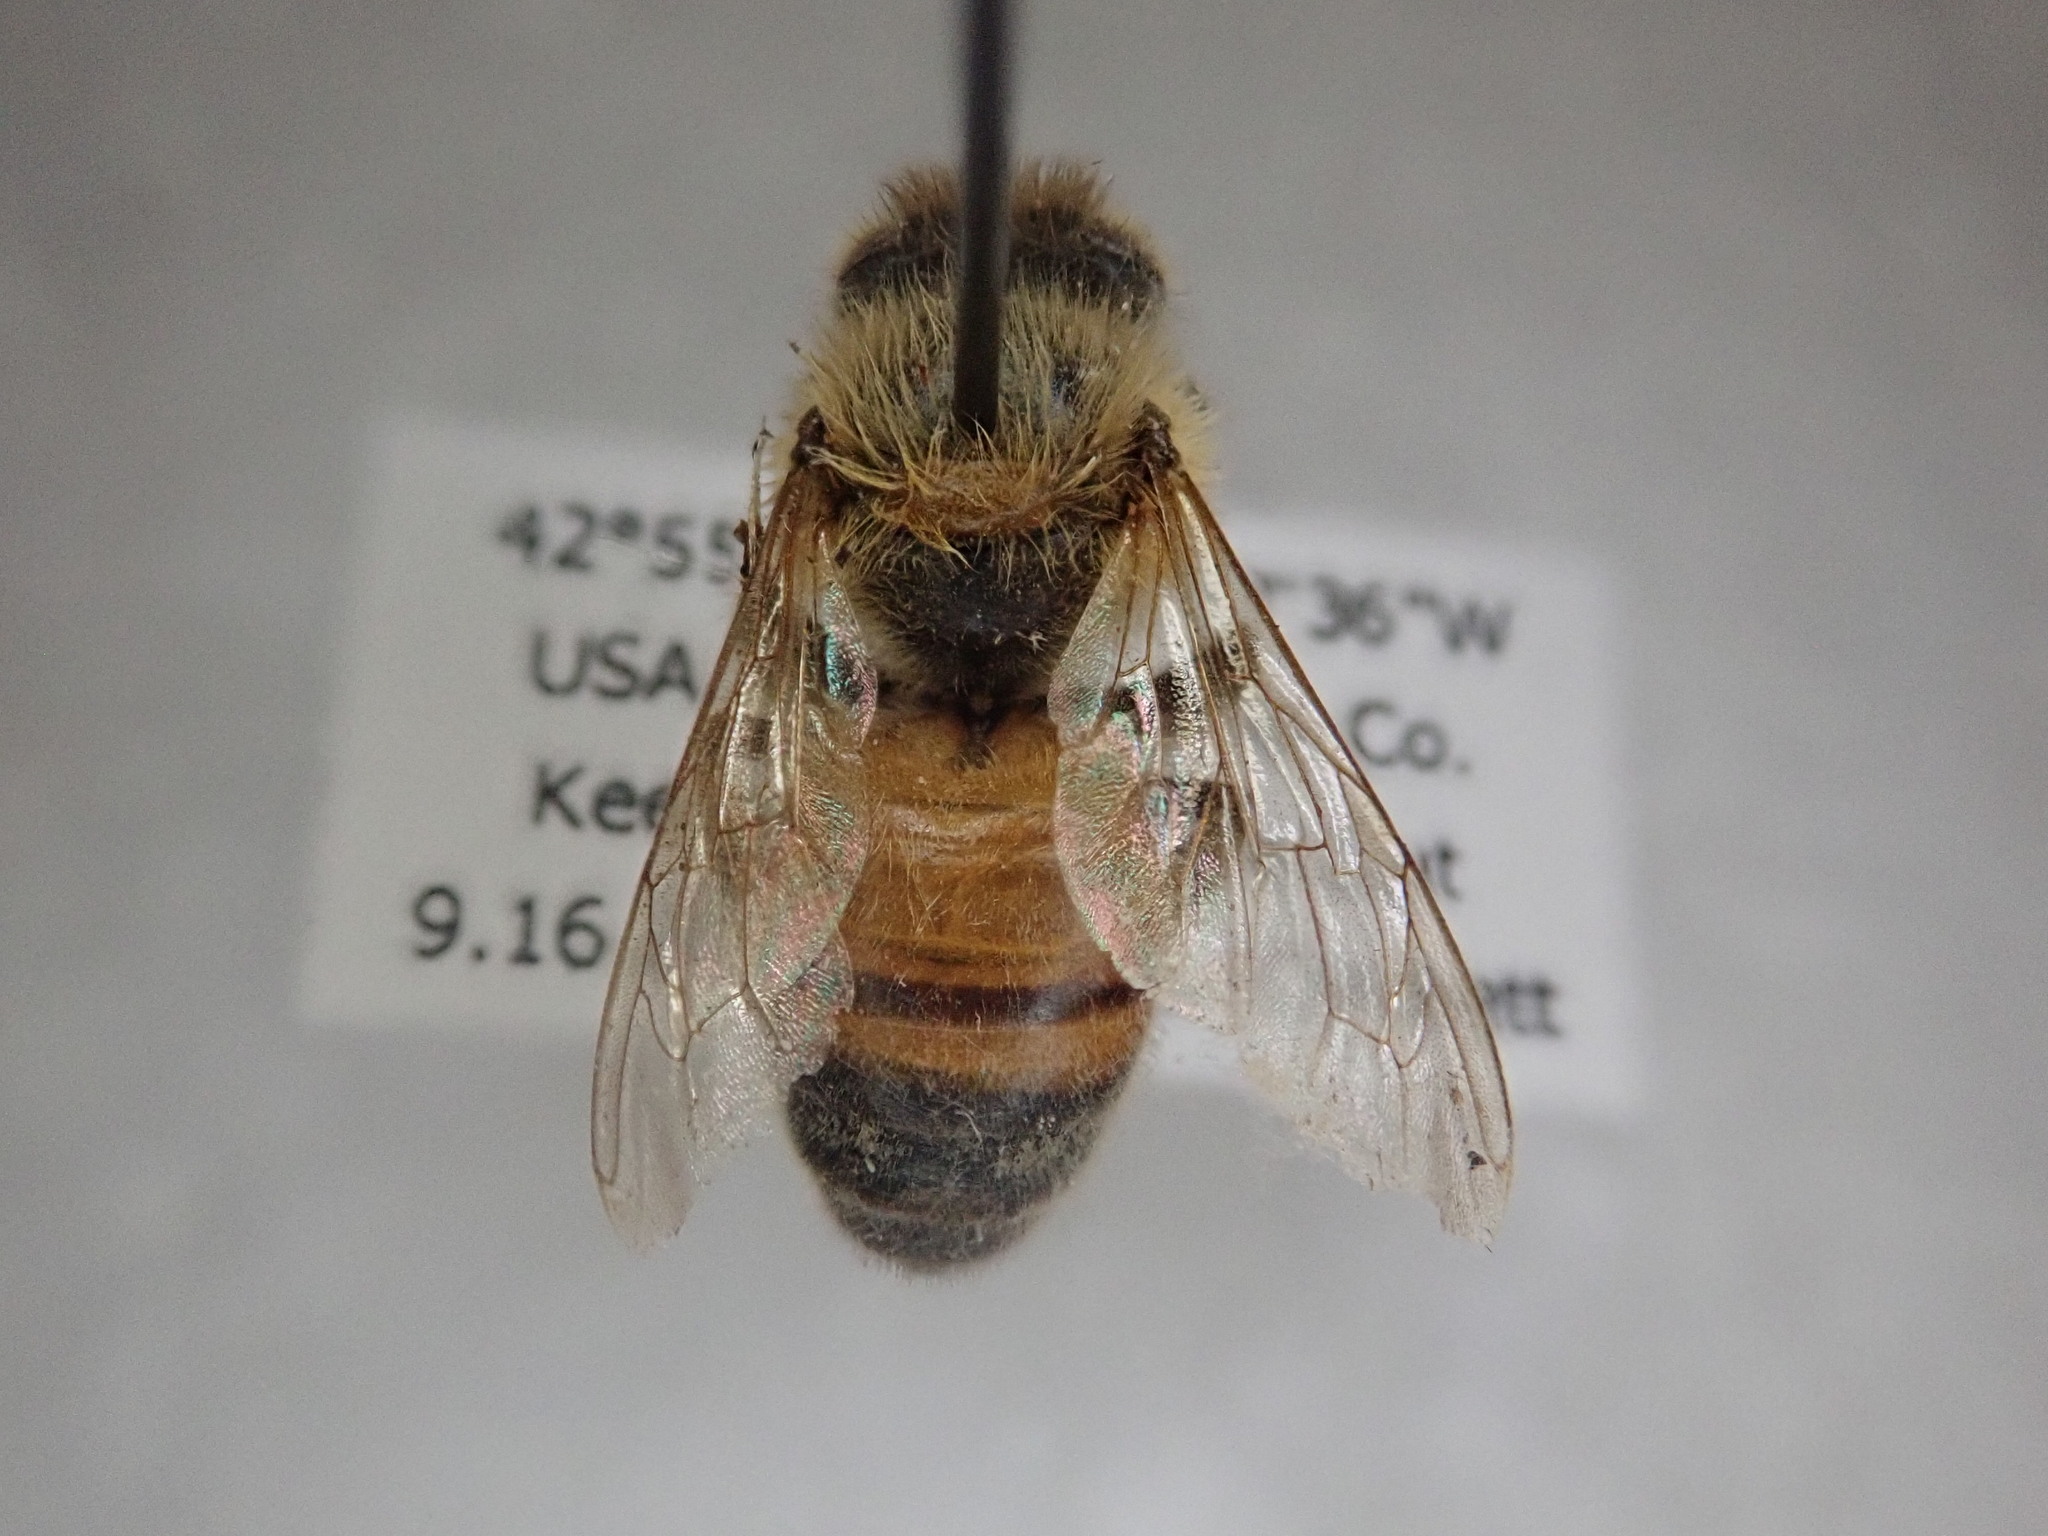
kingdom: Animalia
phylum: Arthropoda
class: Insecta
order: Hymenoptera
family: Apidae
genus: Apis
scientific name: Apis mellifera
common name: Honey bee
